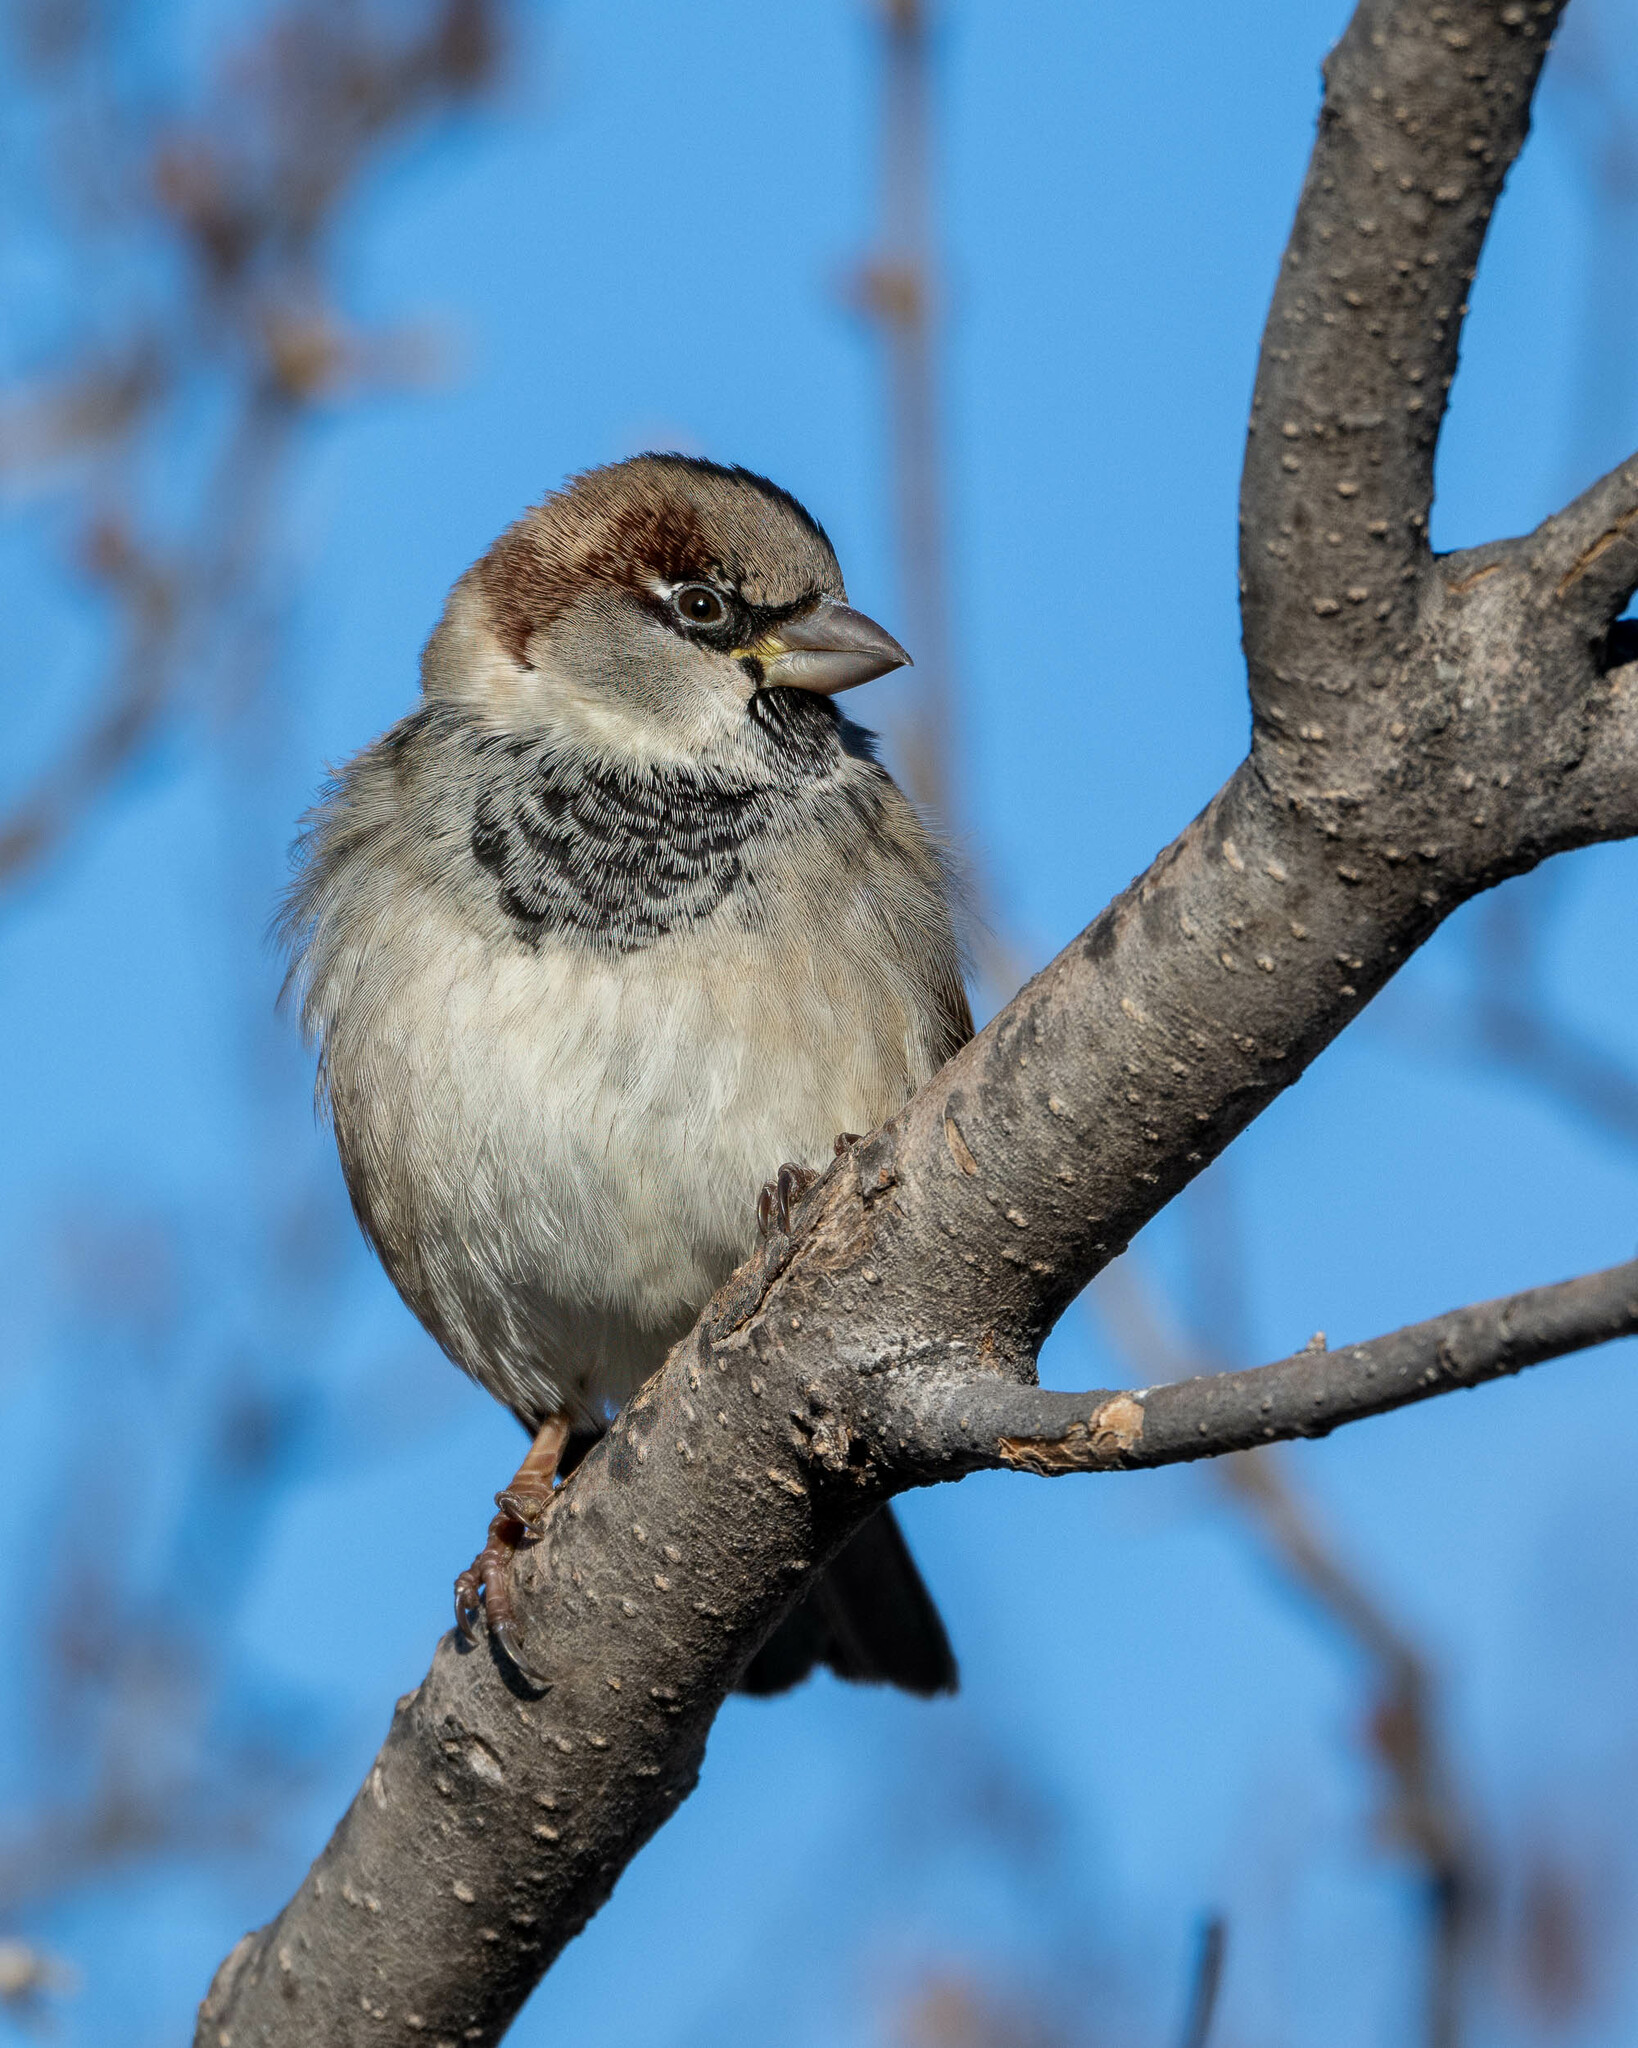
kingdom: Animalia
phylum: Chordata
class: Aves
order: Passeriformes
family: Passeridae
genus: Passer
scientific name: Passer domesticus
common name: House sparrow
